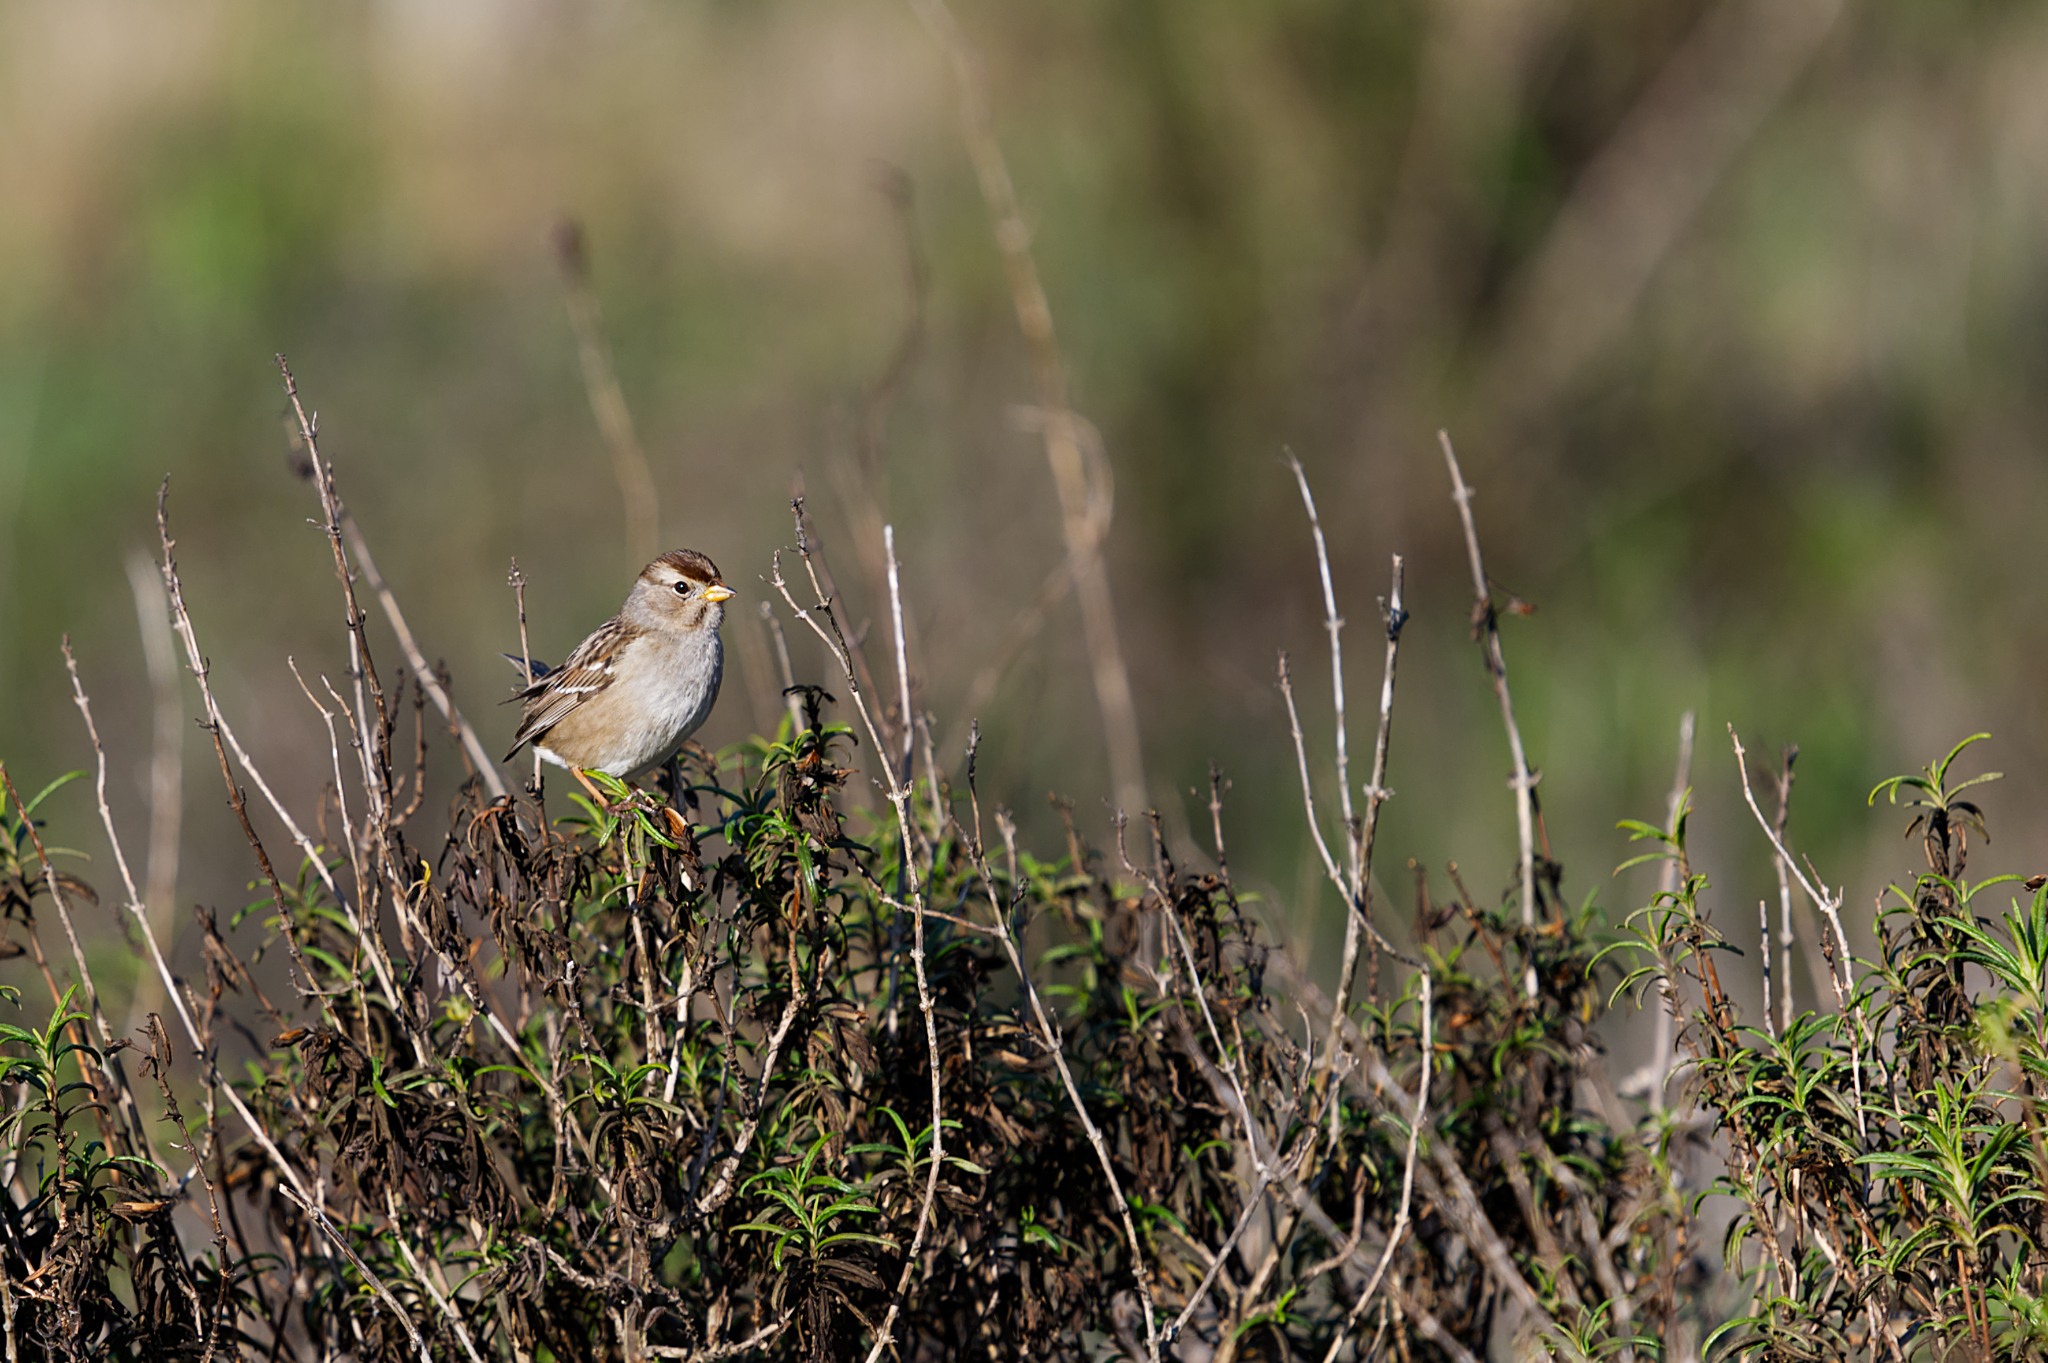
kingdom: Animalia
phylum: Chordata
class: Aves
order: Passeriformes
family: Passerellidae
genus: Zonotrichia
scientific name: Zonotrichia leucophrys
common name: White-crowned sparrow
